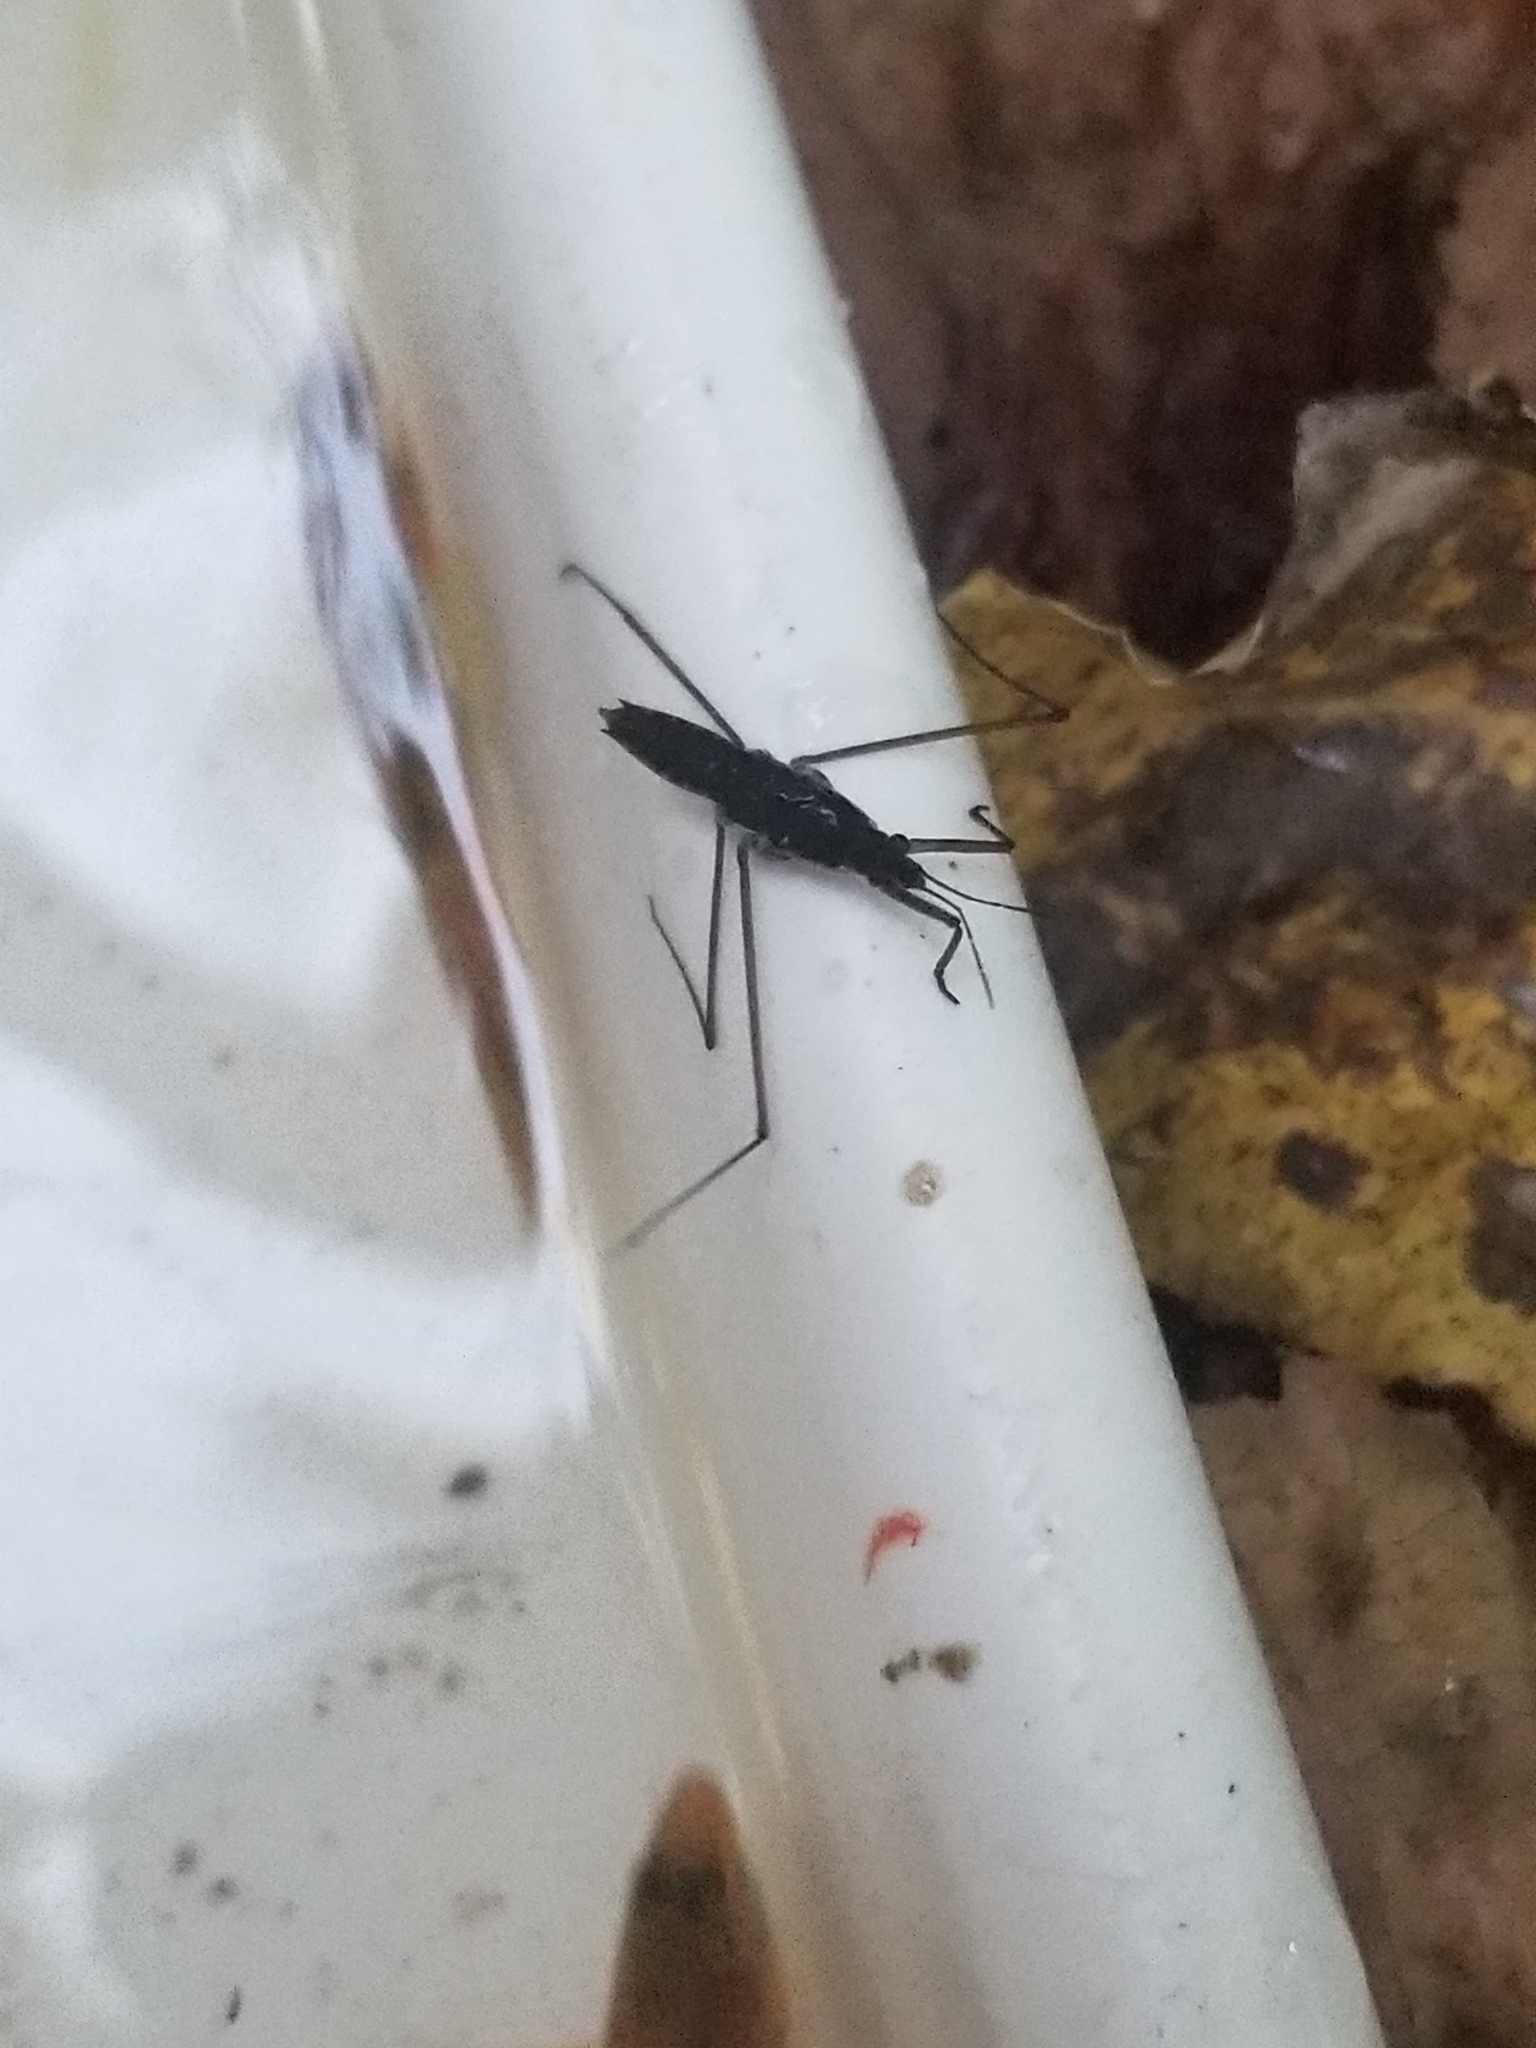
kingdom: Animalia
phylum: Arthropoda
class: Insecta
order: Hemiptera
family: Gerridae
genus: Aquarius
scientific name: Aquarius remigis
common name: Common water strider
